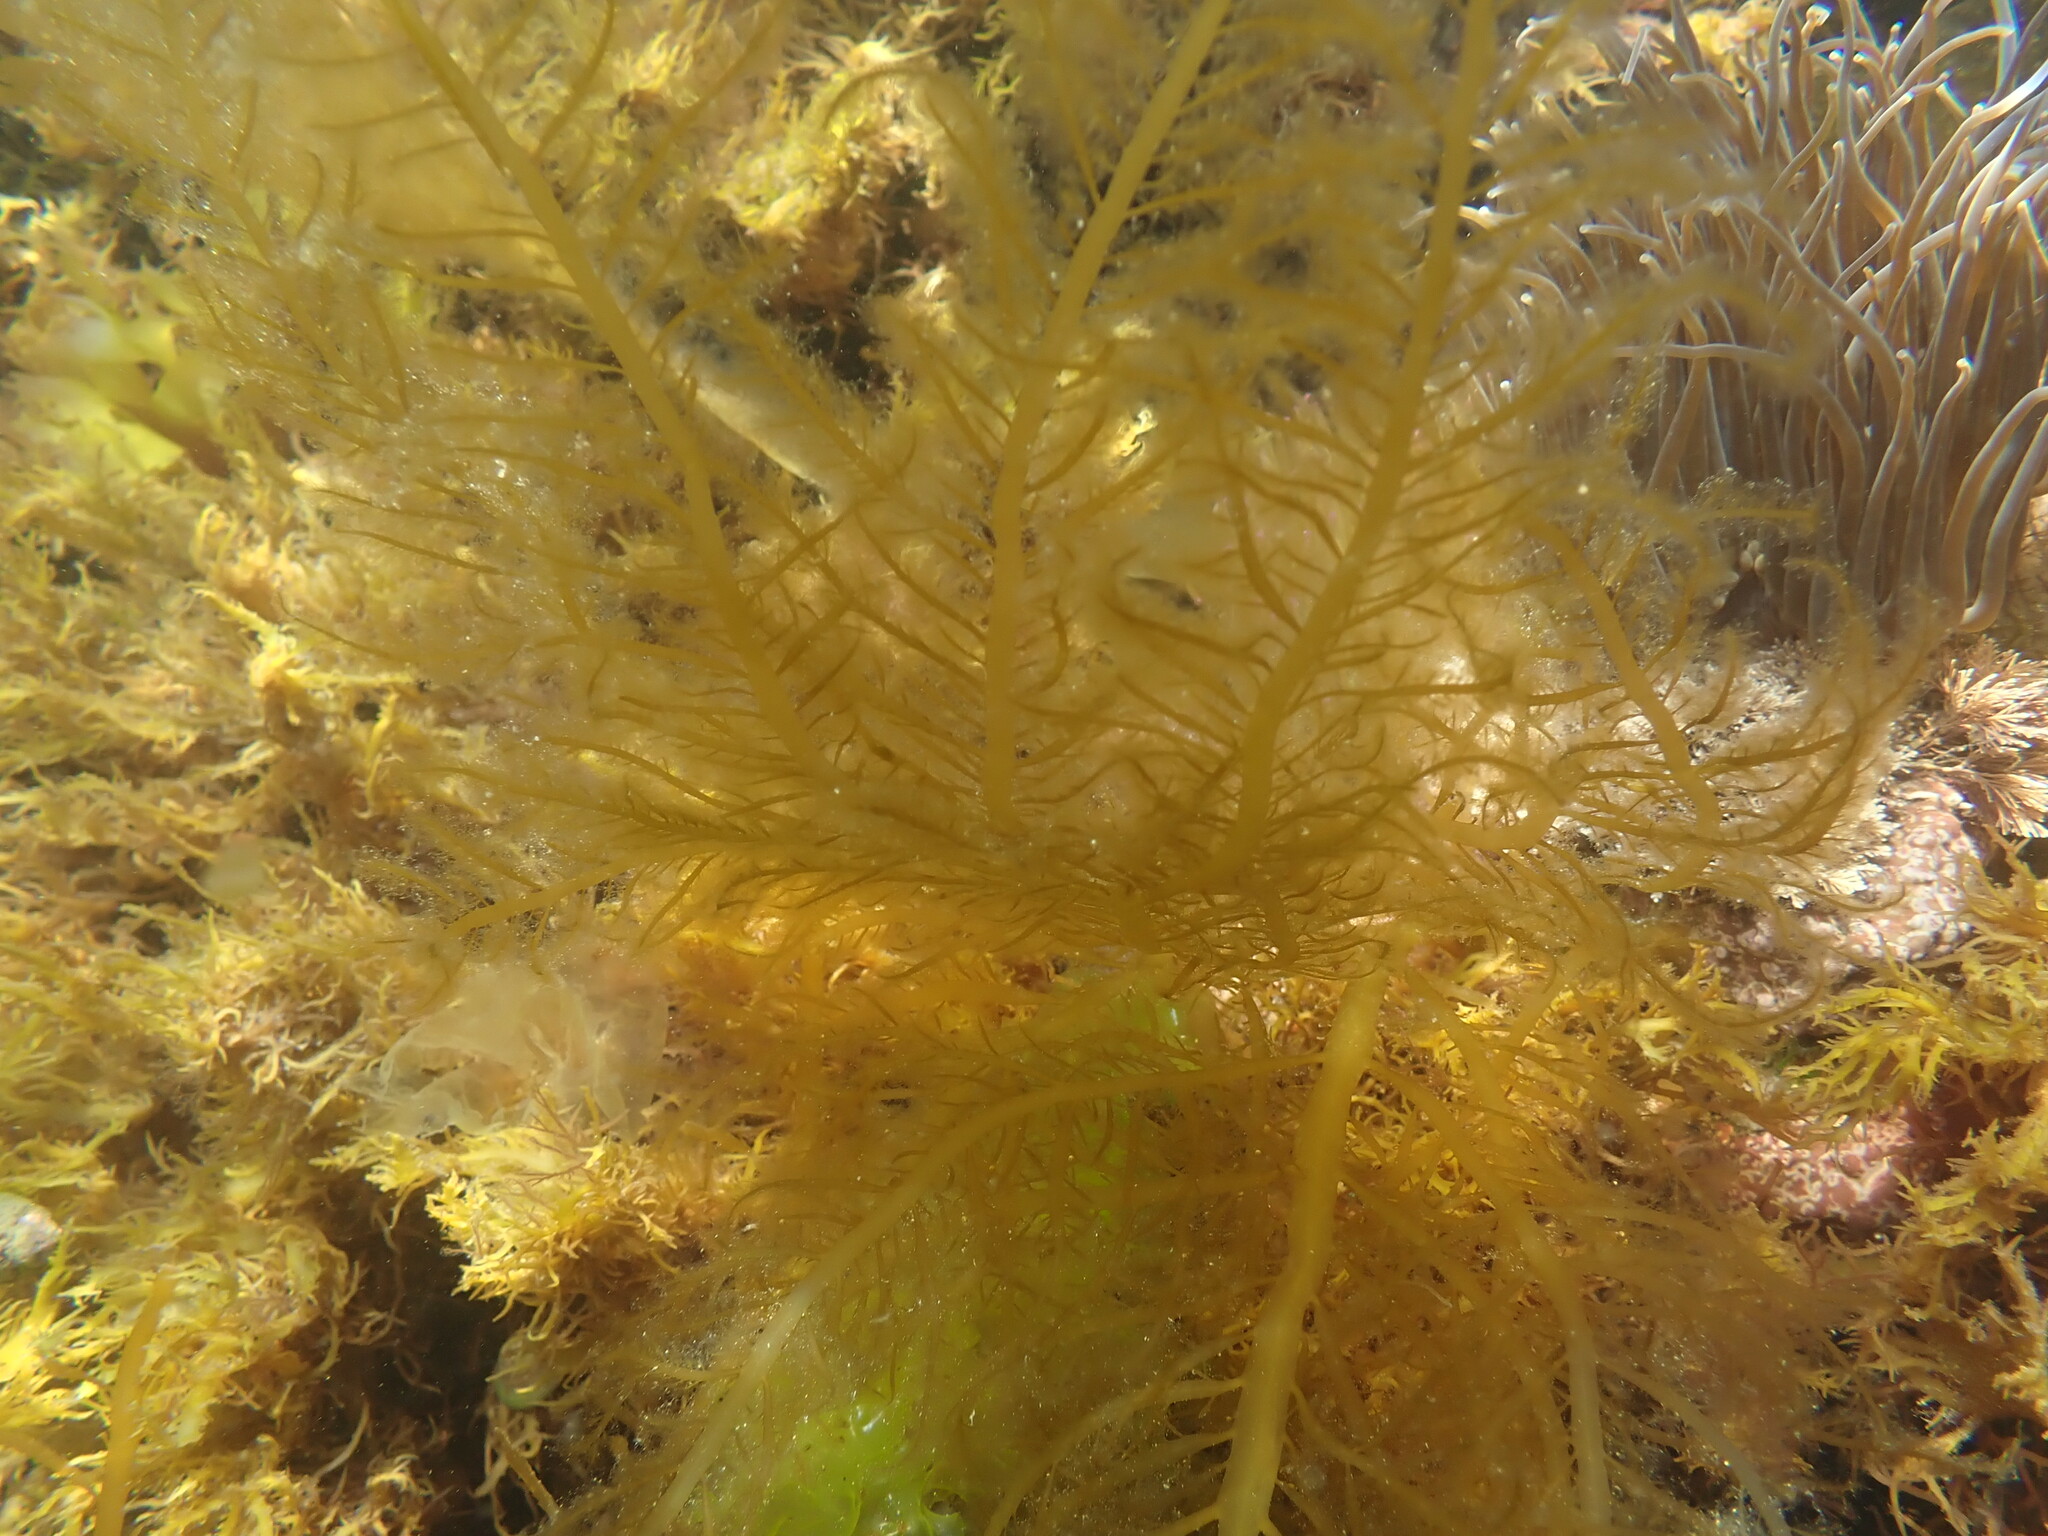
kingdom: Chromista
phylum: Ochrophyta
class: Phaeophyceae
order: Desmarestiales
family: Desmarestiaceae
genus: Desmarestia
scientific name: Desmarestia ligulata
